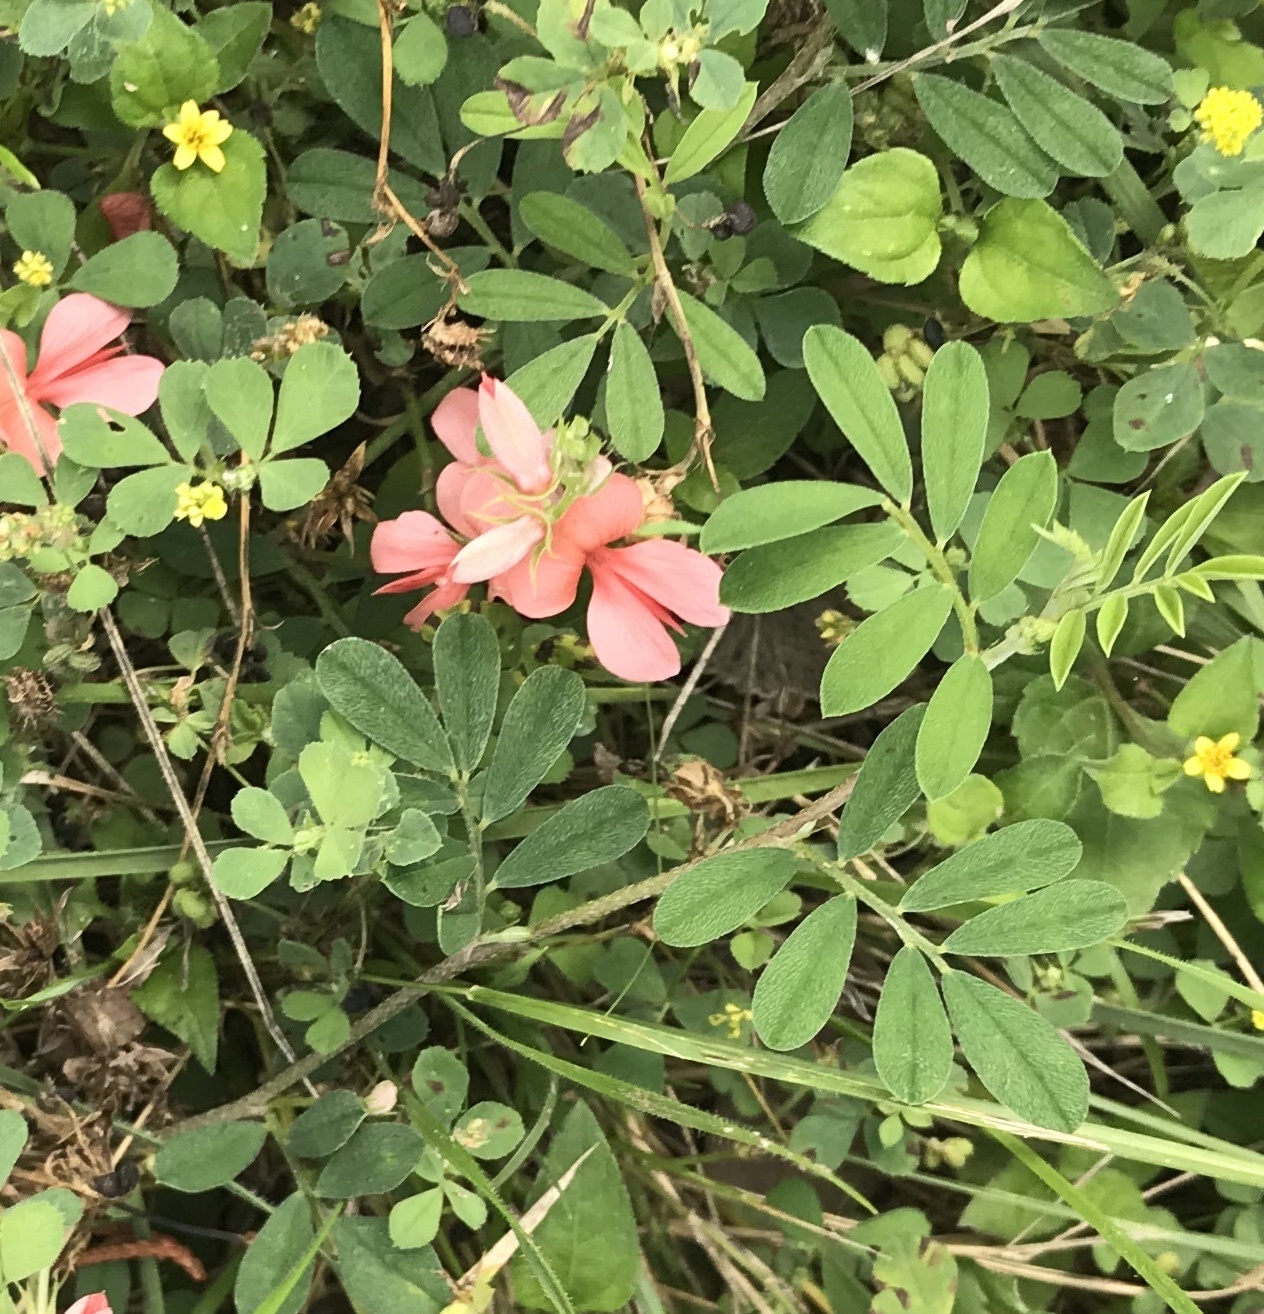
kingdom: Plantae
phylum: Tracheophyta
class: Magnoliopsida
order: Fabales
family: Fabaceae
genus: Indigofera
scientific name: Indigofera miniata
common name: Coast indigo
